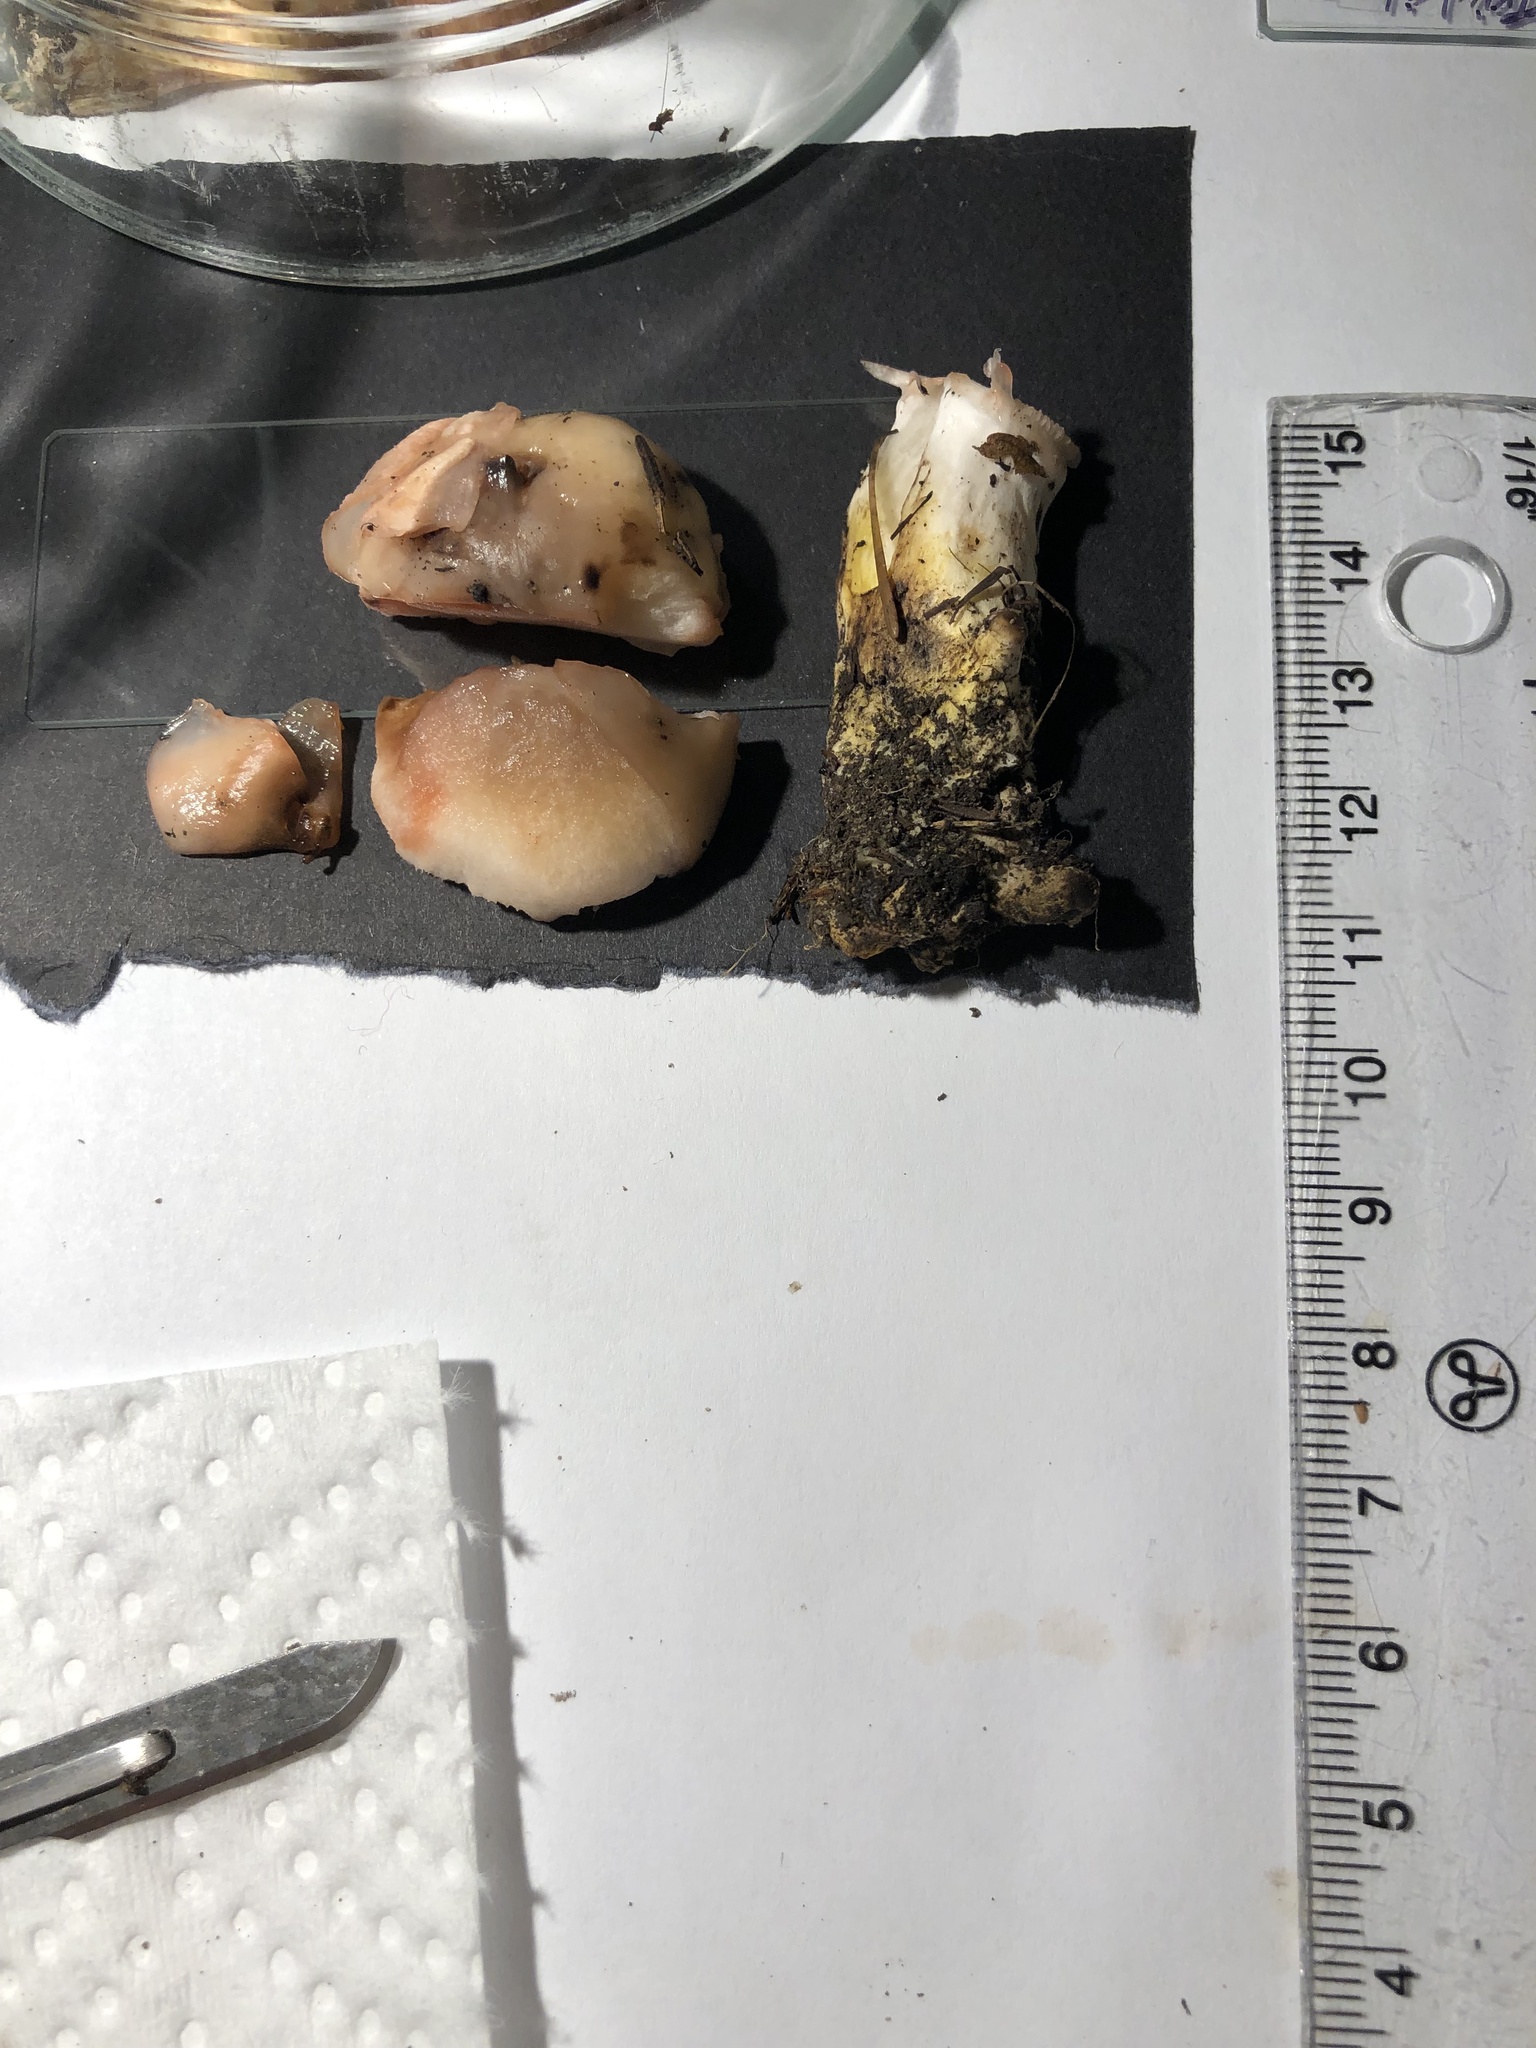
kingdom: Fungi
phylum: Basidiomycota
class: Agaricomycetes
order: Boletales
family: Gomphidiaceae
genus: Gomphidius
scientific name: Gomphidius oregonensis
